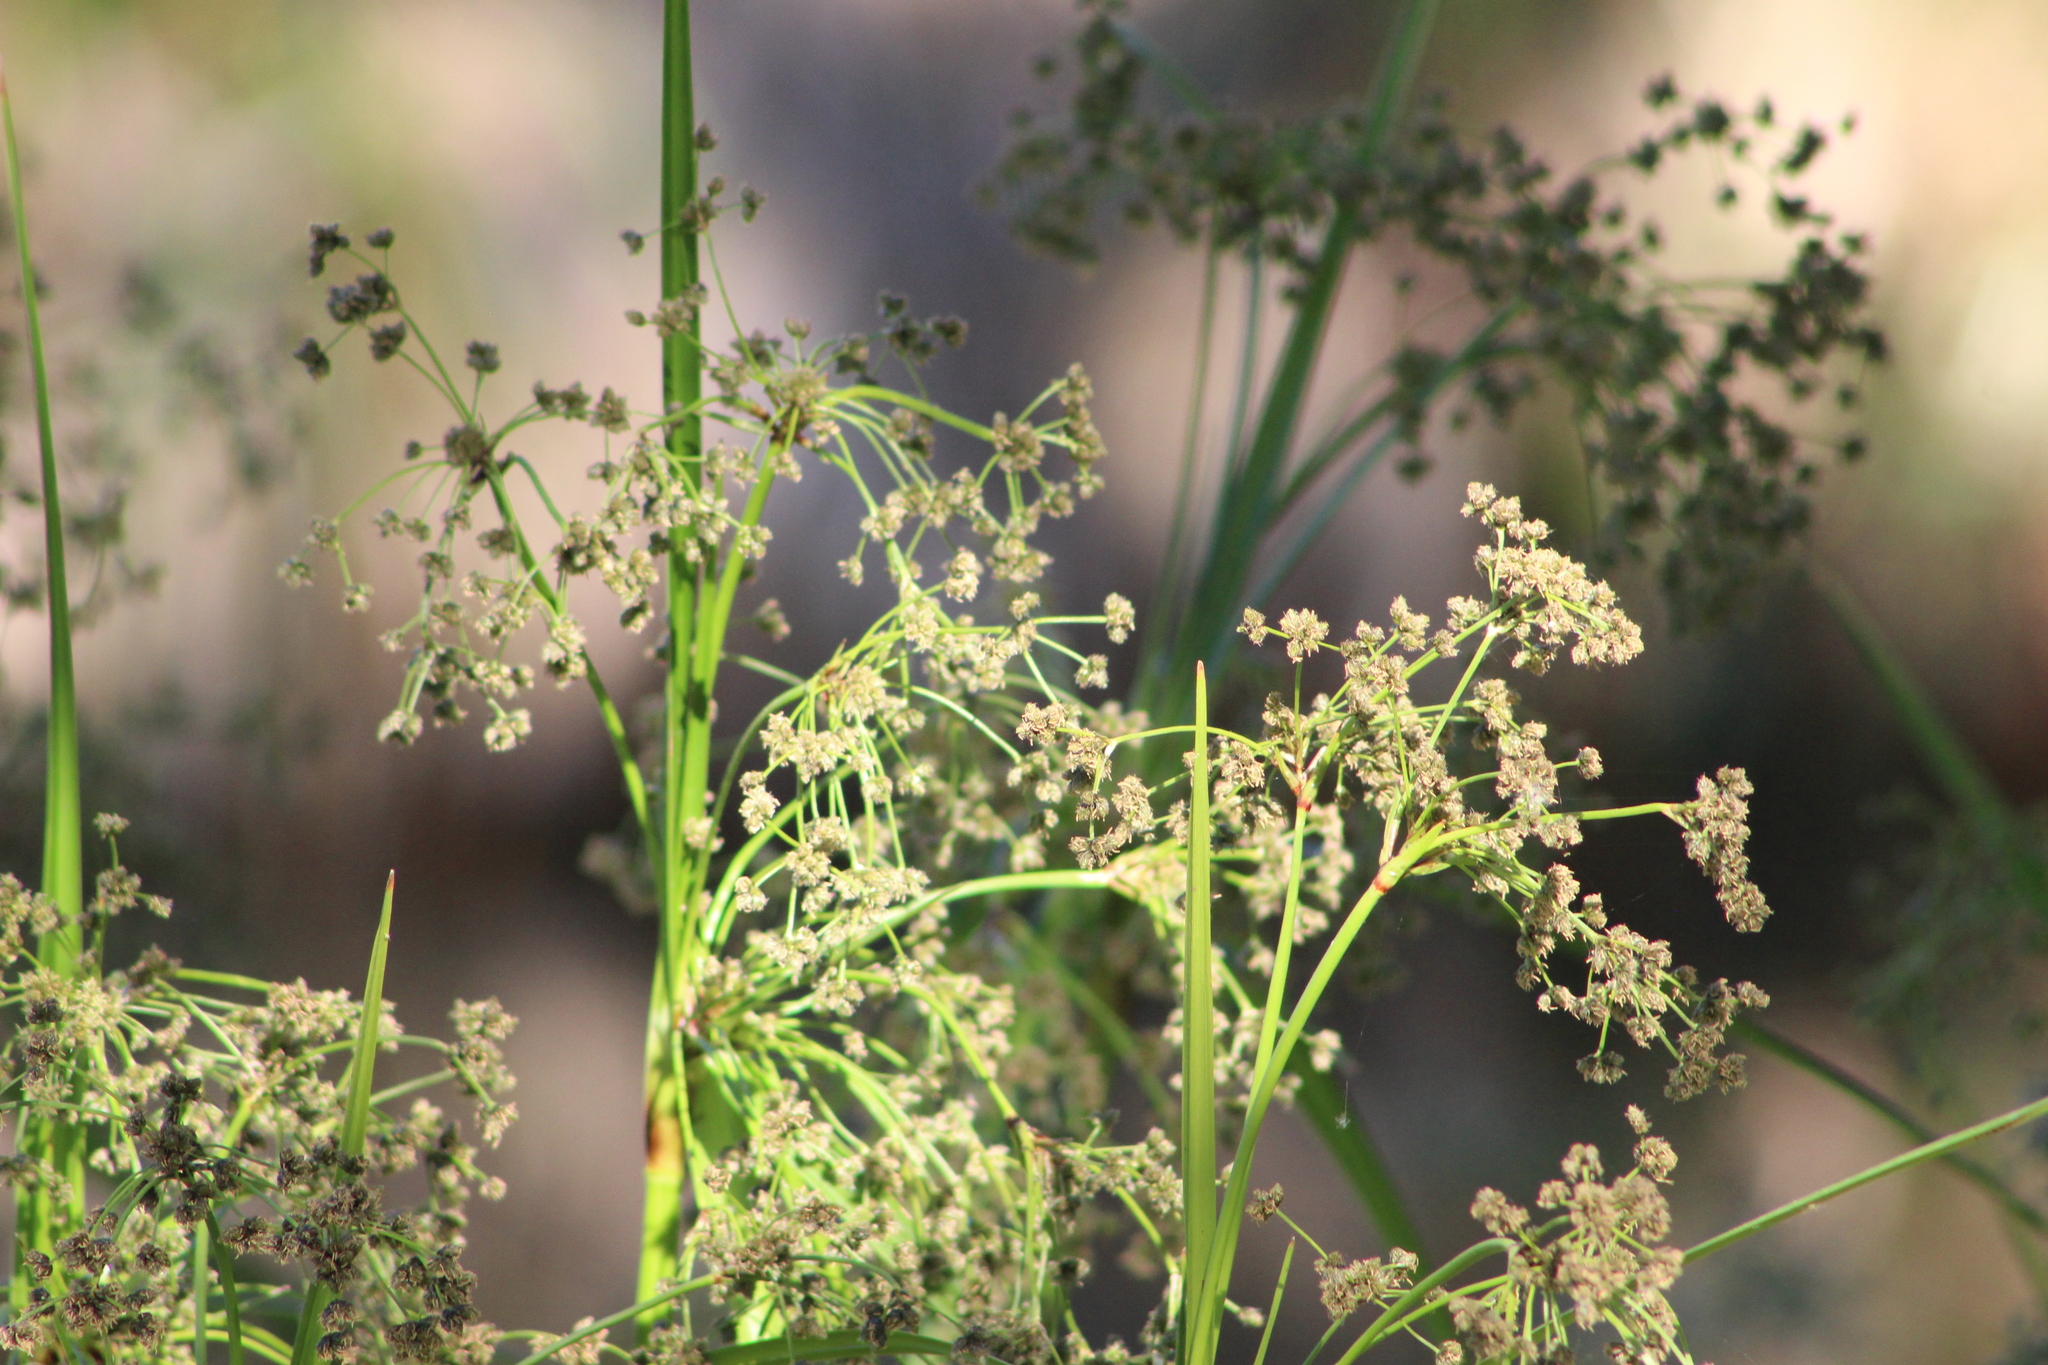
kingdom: Plantae
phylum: Tracheophyta
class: Liliopsida
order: Poales
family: Cyperaceae
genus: Scirpus
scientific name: Scirpus microcarpus
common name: Panicled bulrush
